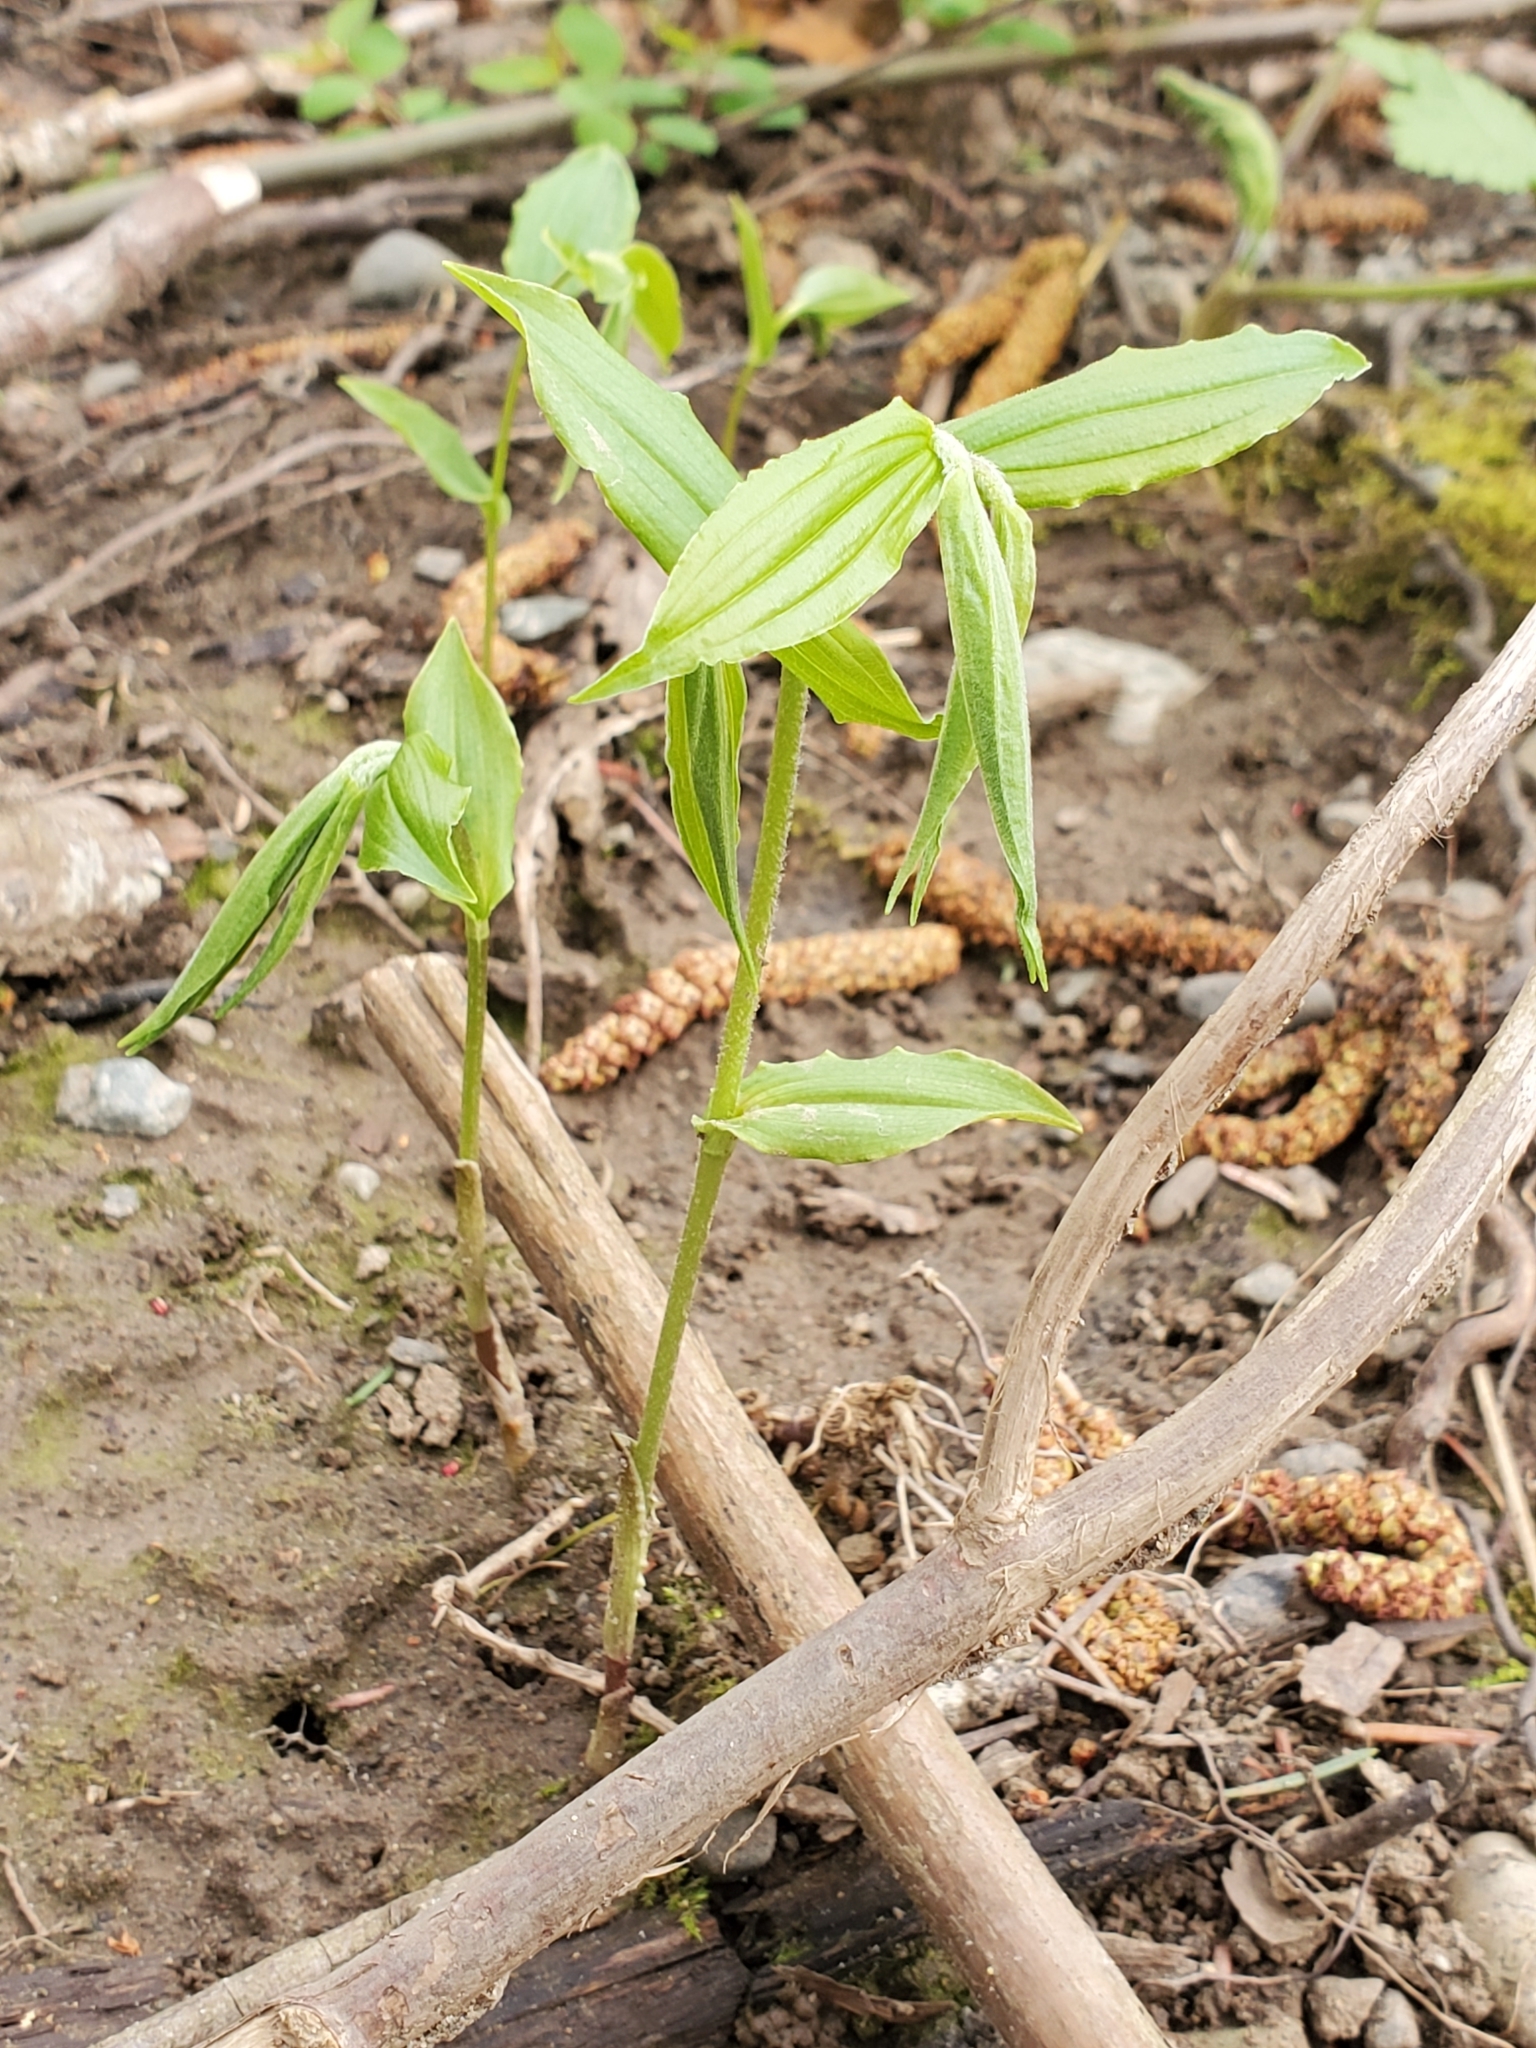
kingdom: Plantae
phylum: Tracheophyta
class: Liliopsida
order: Liliales
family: Liliaceae
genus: Prosartes
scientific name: Prosartes hookeri
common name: Fairy-bells
